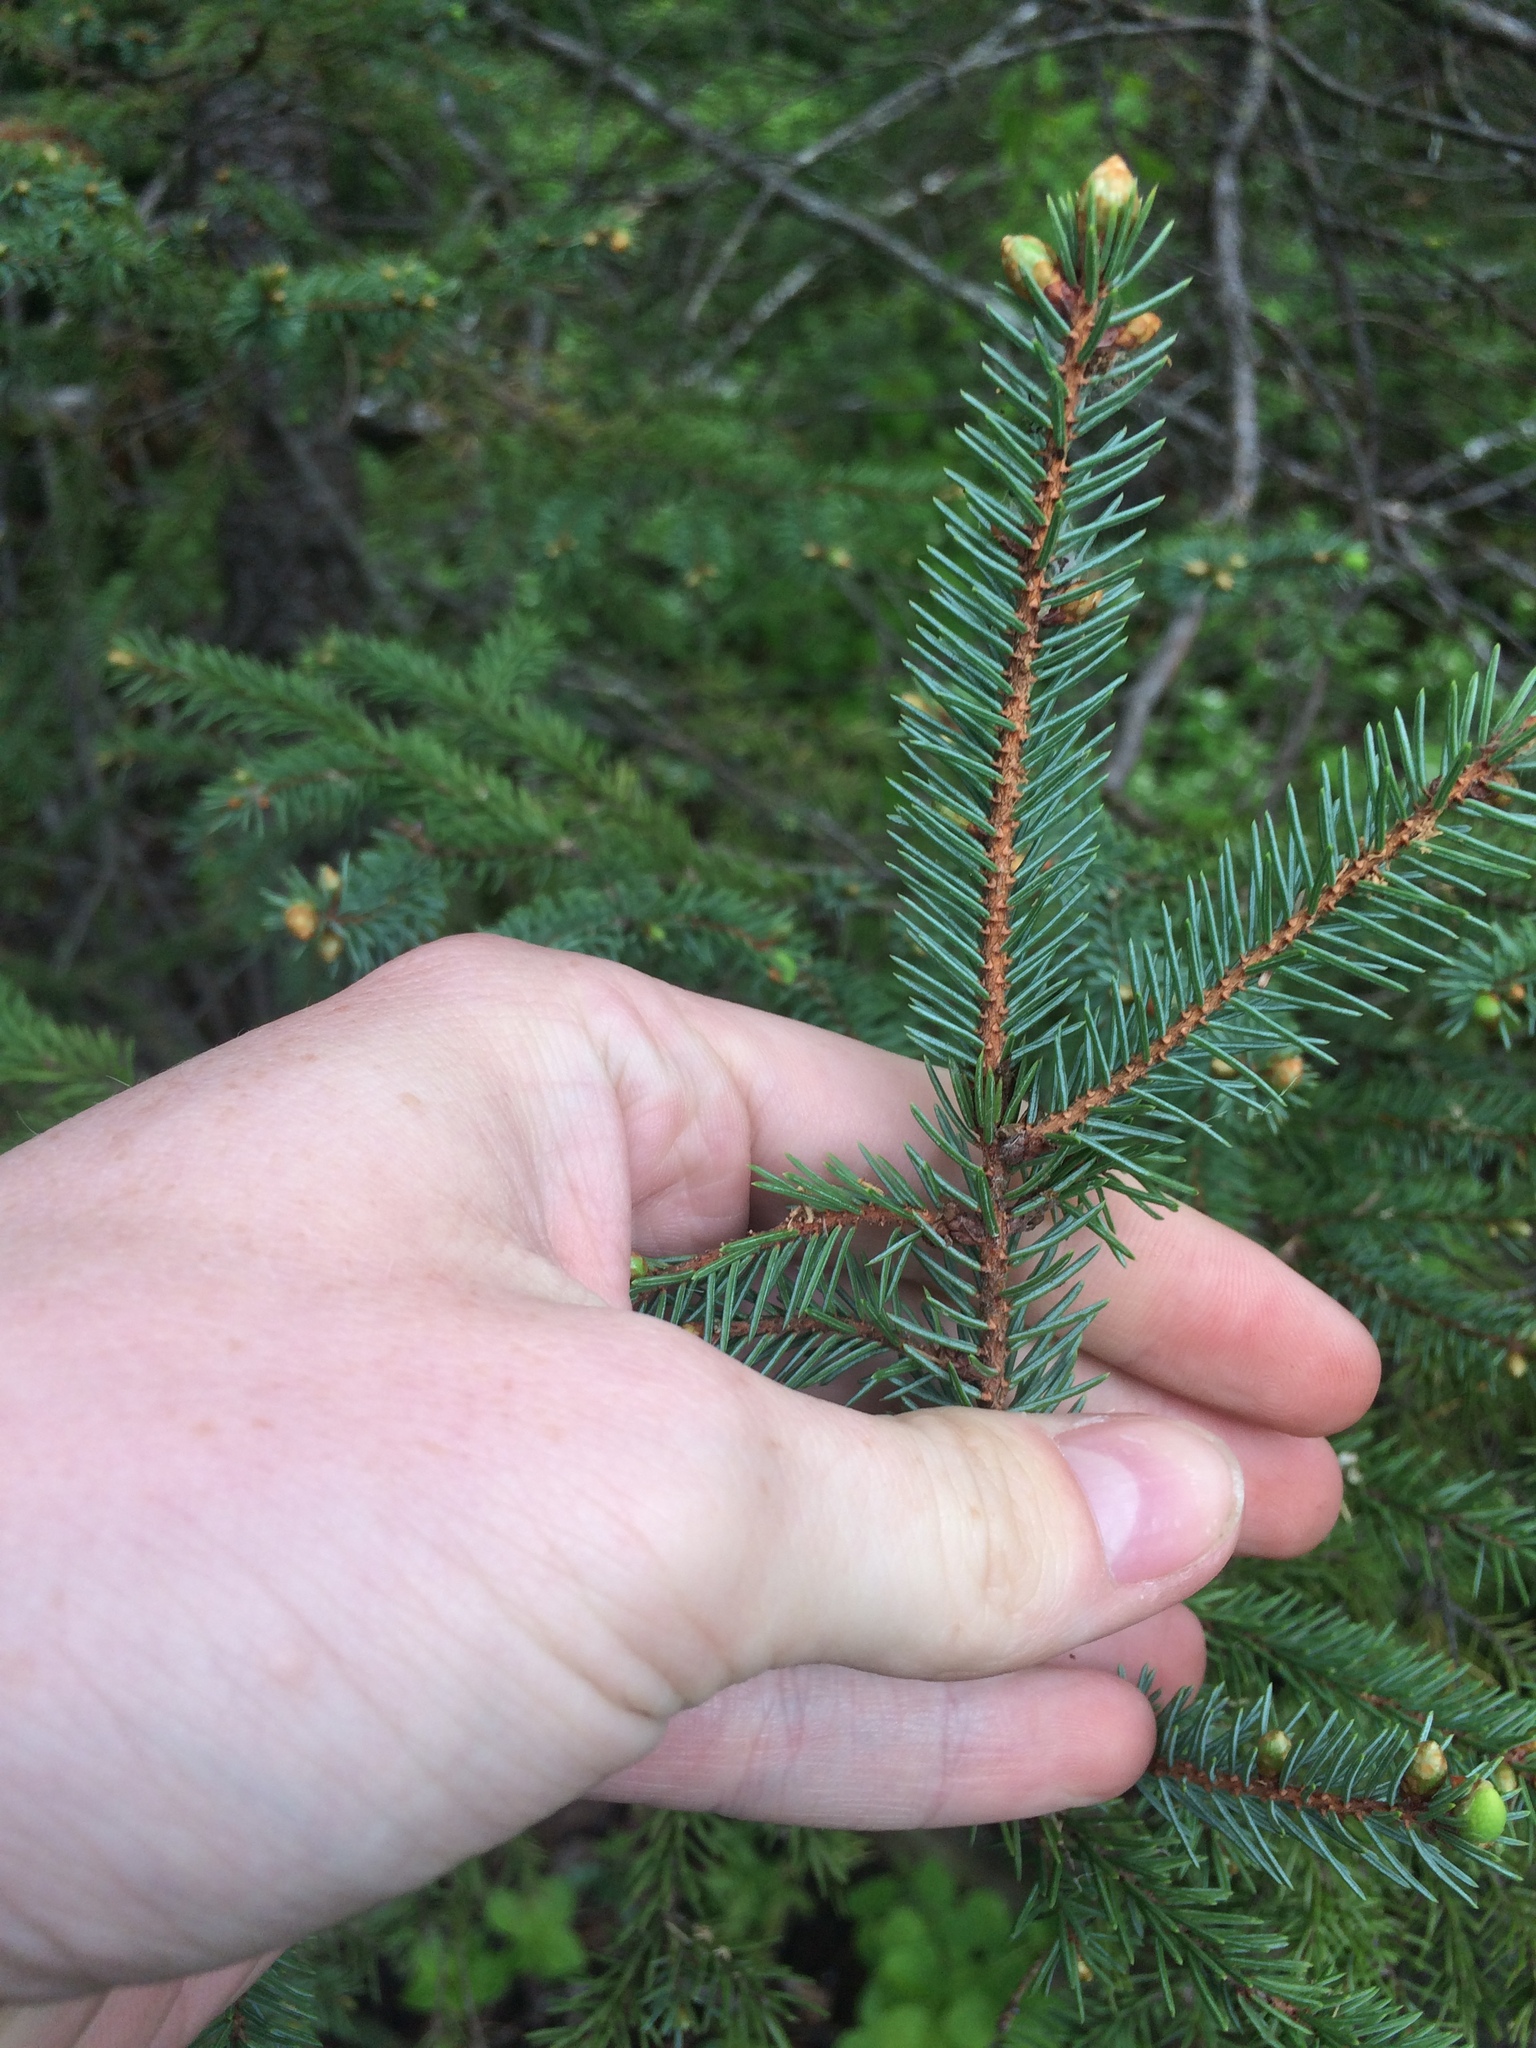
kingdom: Plantae
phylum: Tracheophyta
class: Pinopsida
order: Pinales
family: Pinaceae
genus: Picea
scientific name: Picea mariana
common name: Black spruce
